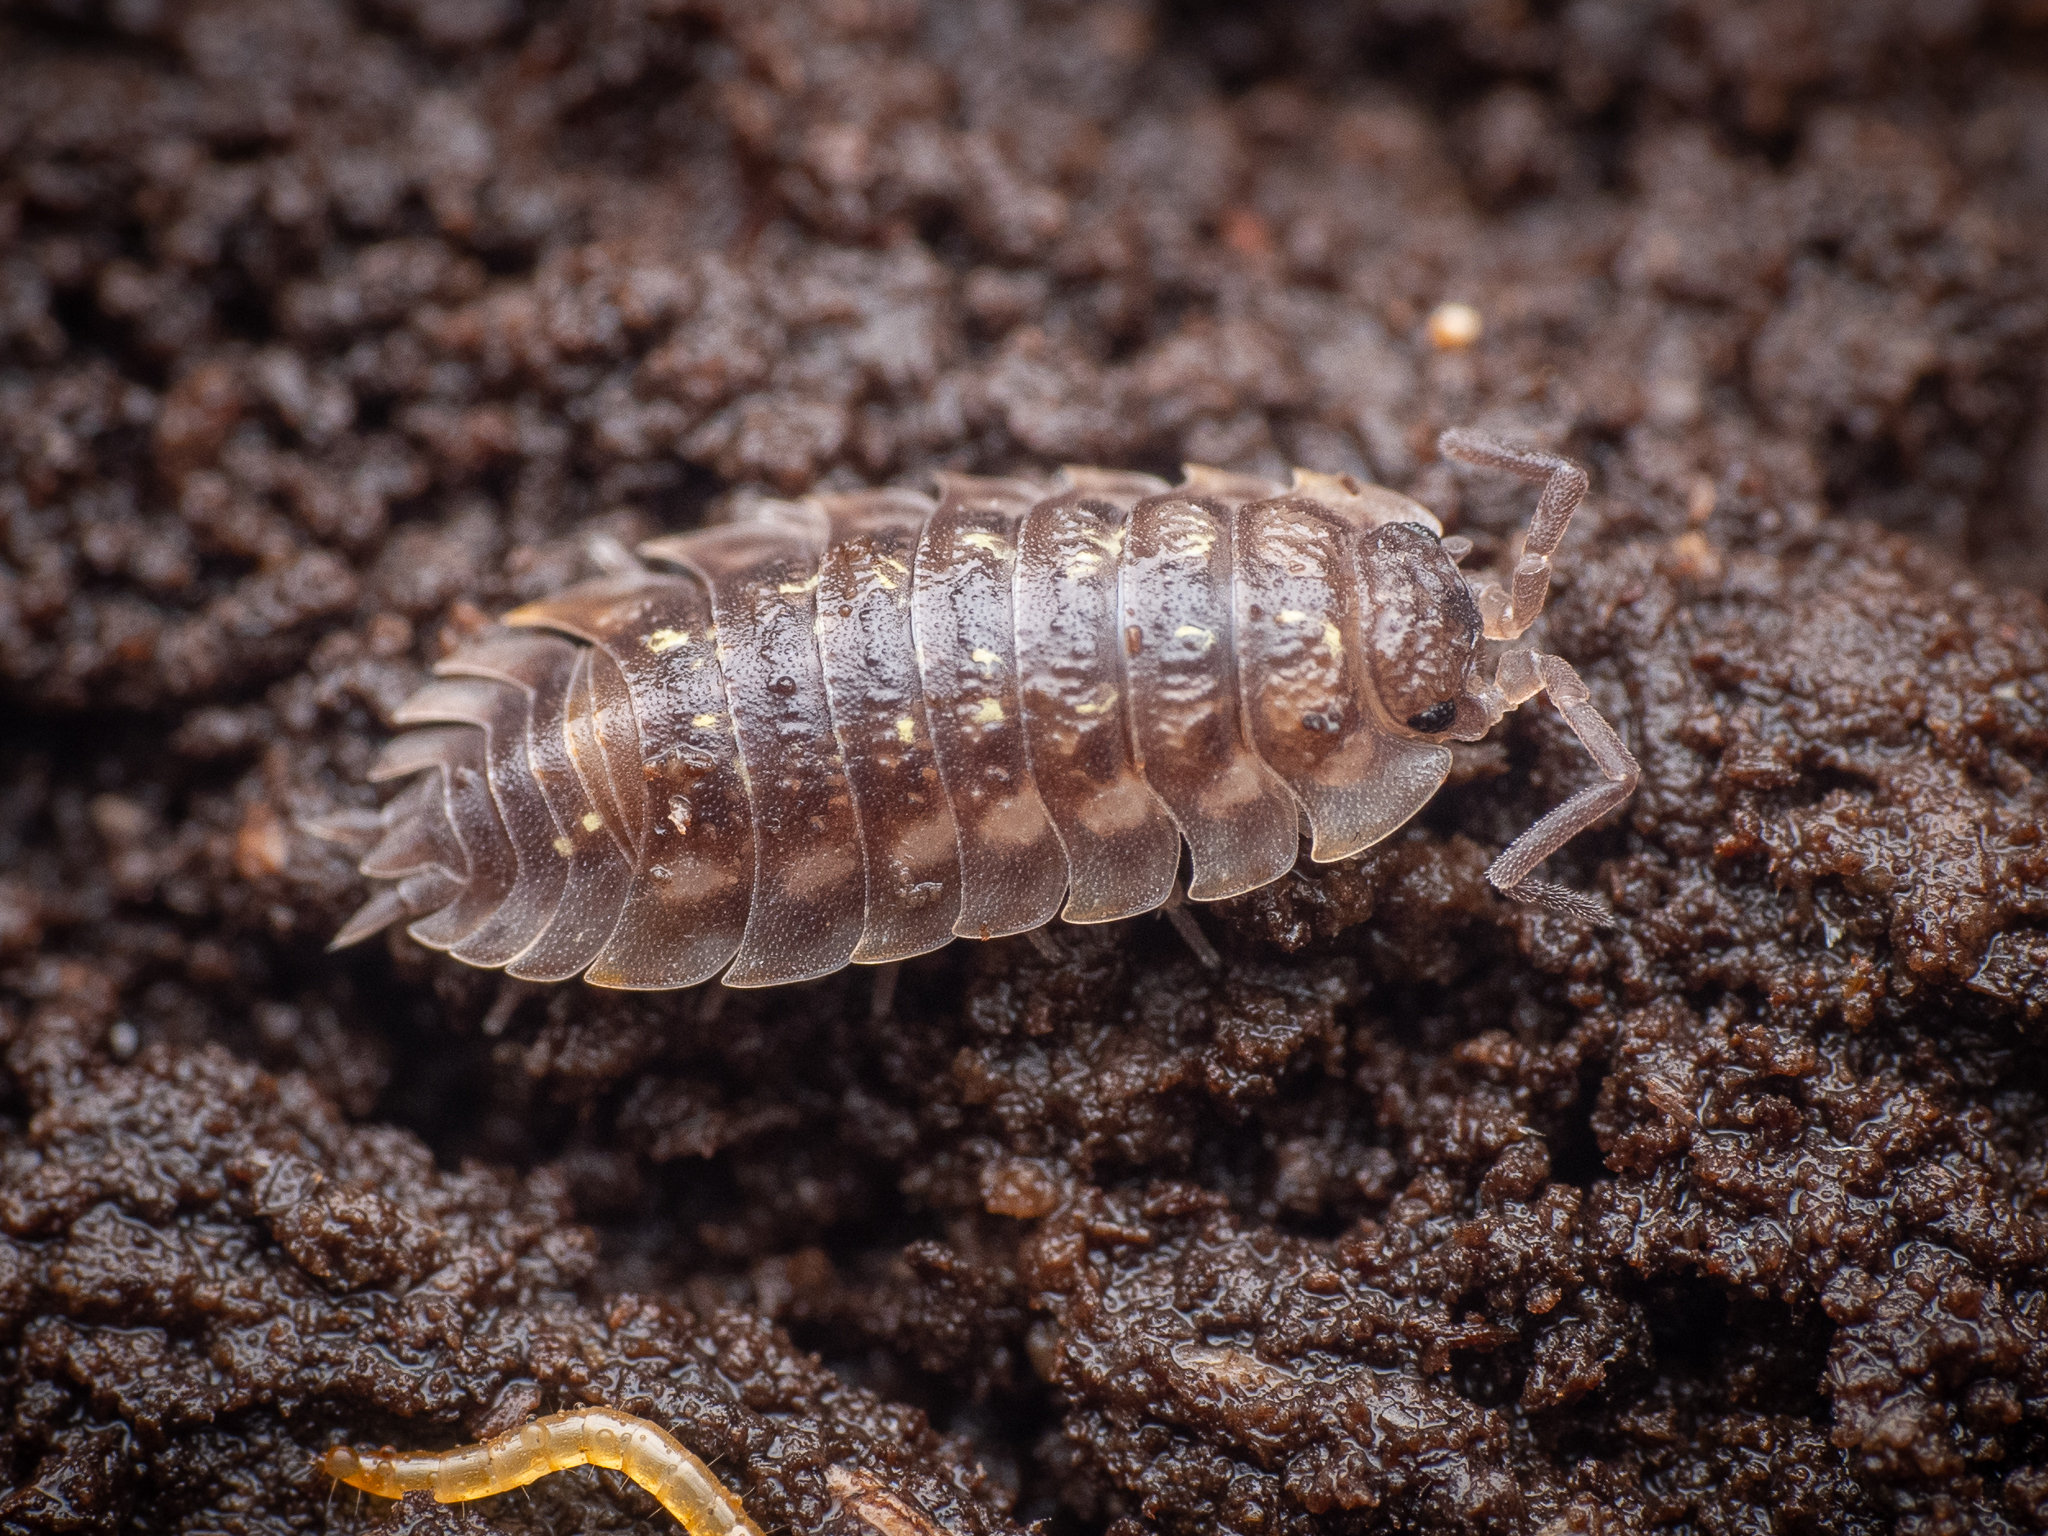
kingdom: Animalia
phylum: Arthropoda
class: Malacostraca
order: Isopoda
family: Oniscidae
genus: Oniscus
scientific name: Oniscus asellus
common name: Common shiny woodlouse
